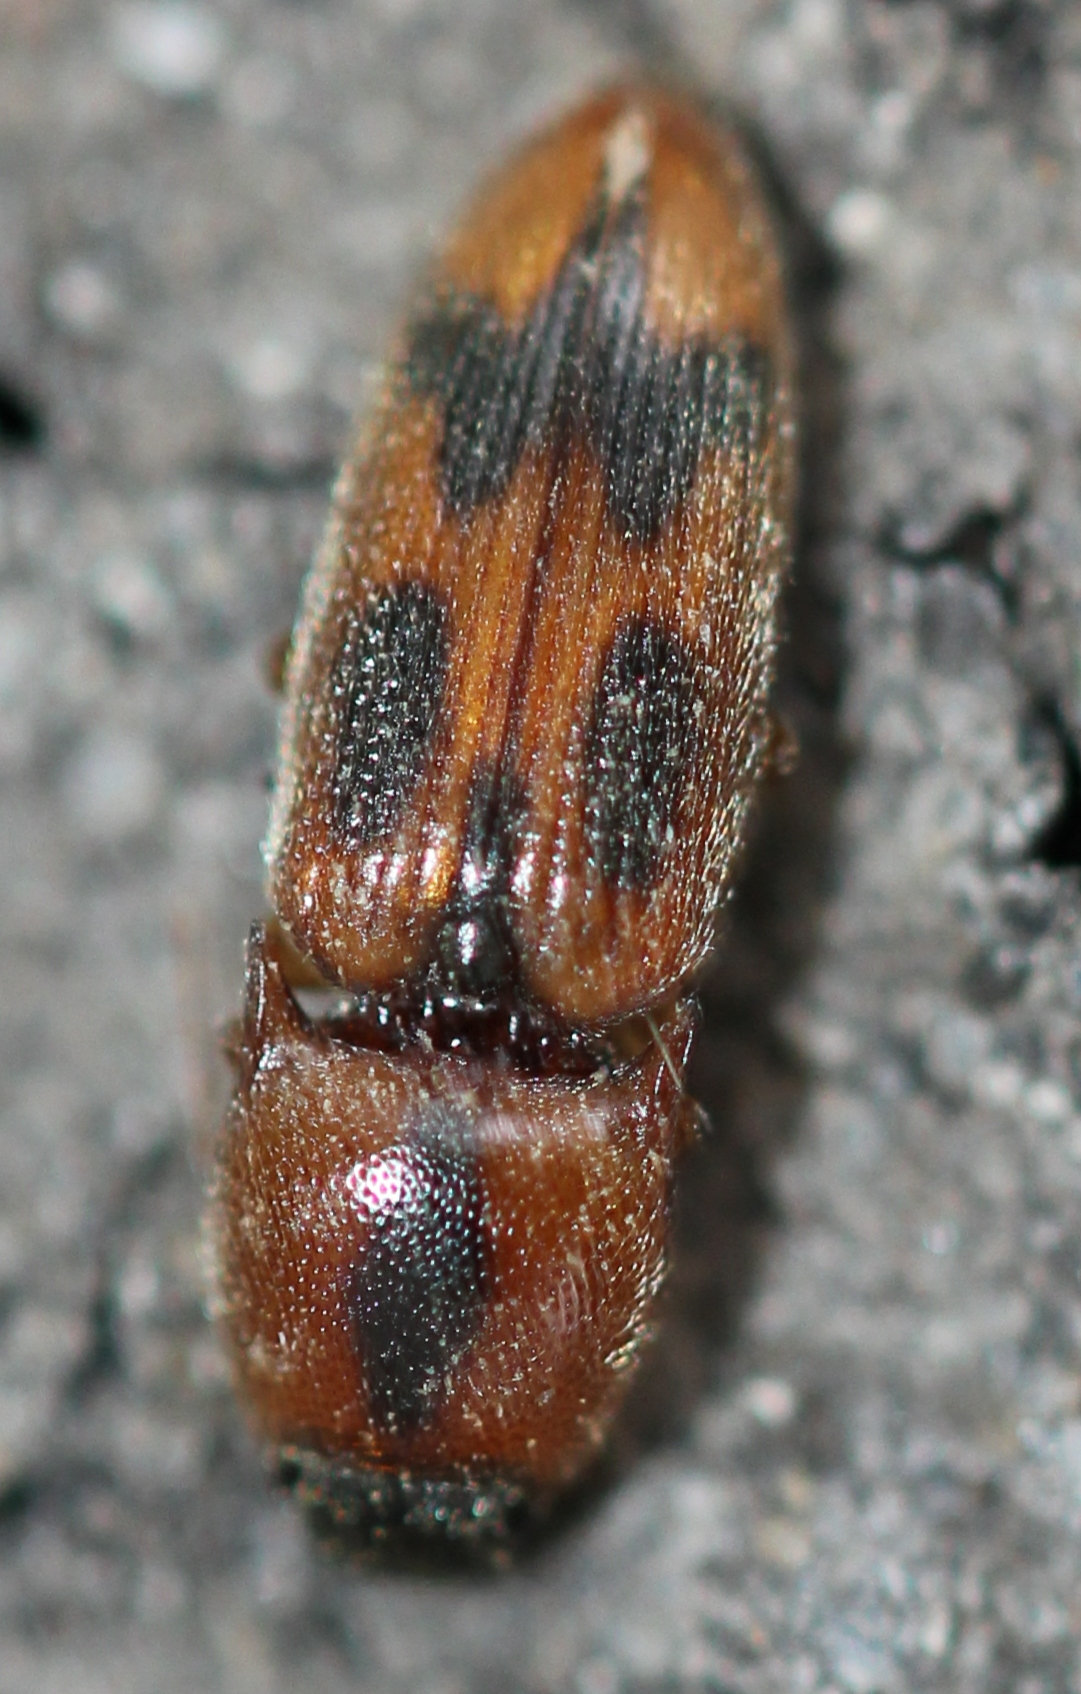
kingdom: Animalia
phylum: Arthropoda
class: Insecta
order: Coleoptera
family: Elateridae
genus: Aeolus
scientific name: Aeolus mellillus
